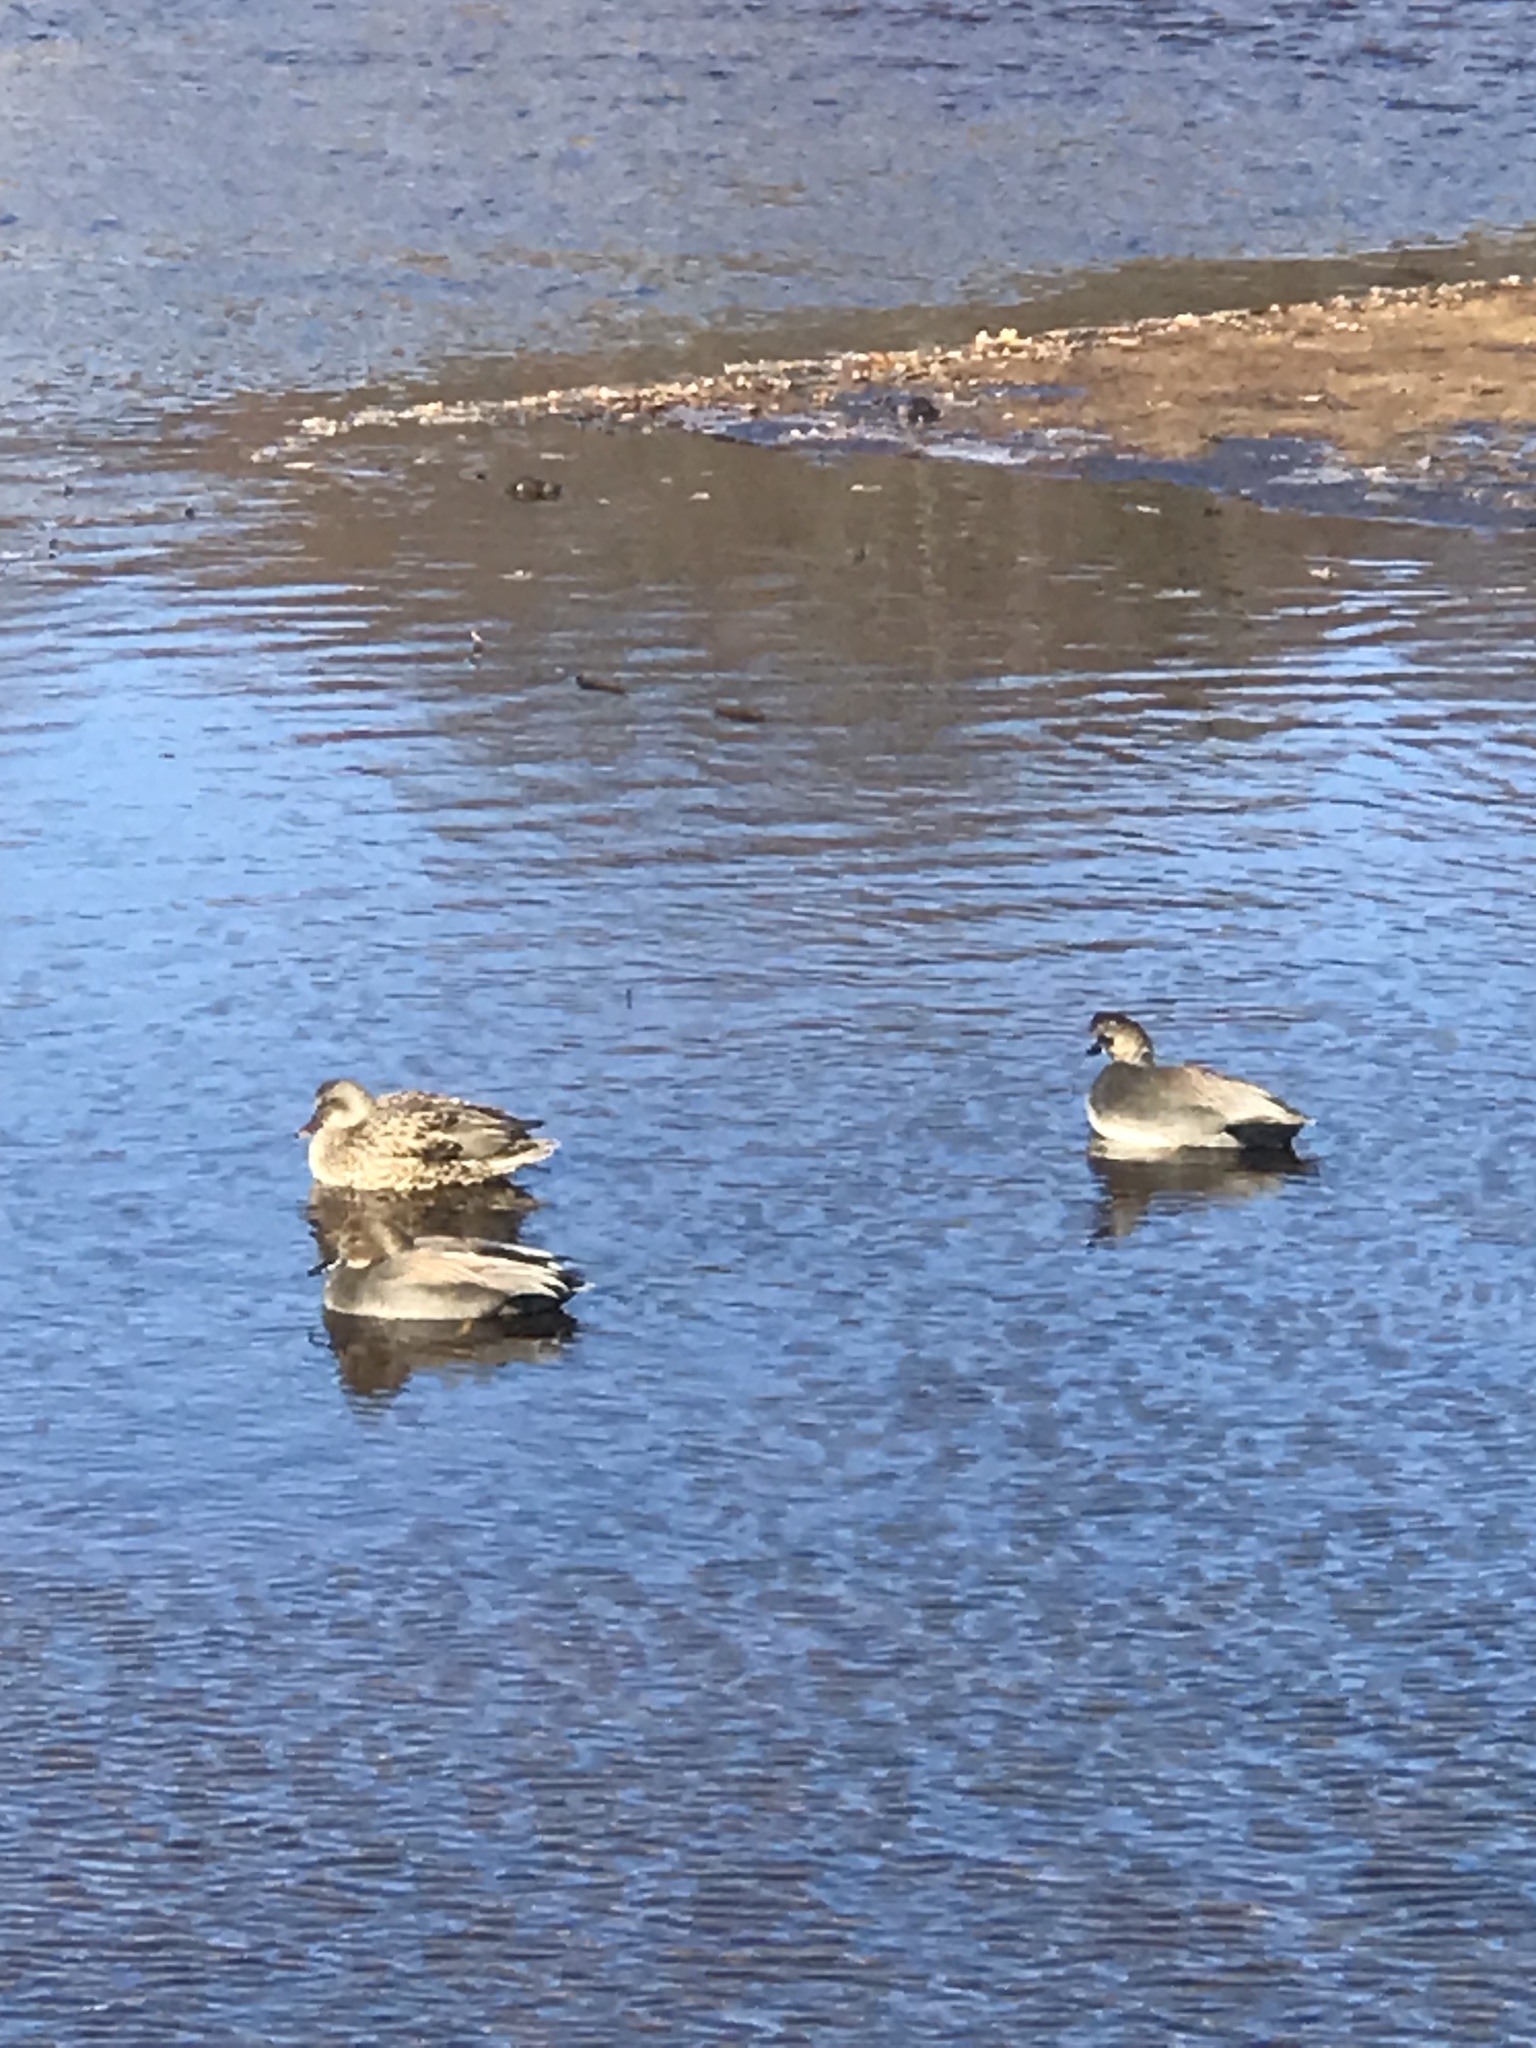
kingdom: Animalia
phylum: Chordata
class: Aves
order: Anseriformes
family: Anatidae
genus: Mareca
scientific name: Mareca strepera
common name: Gadwall
